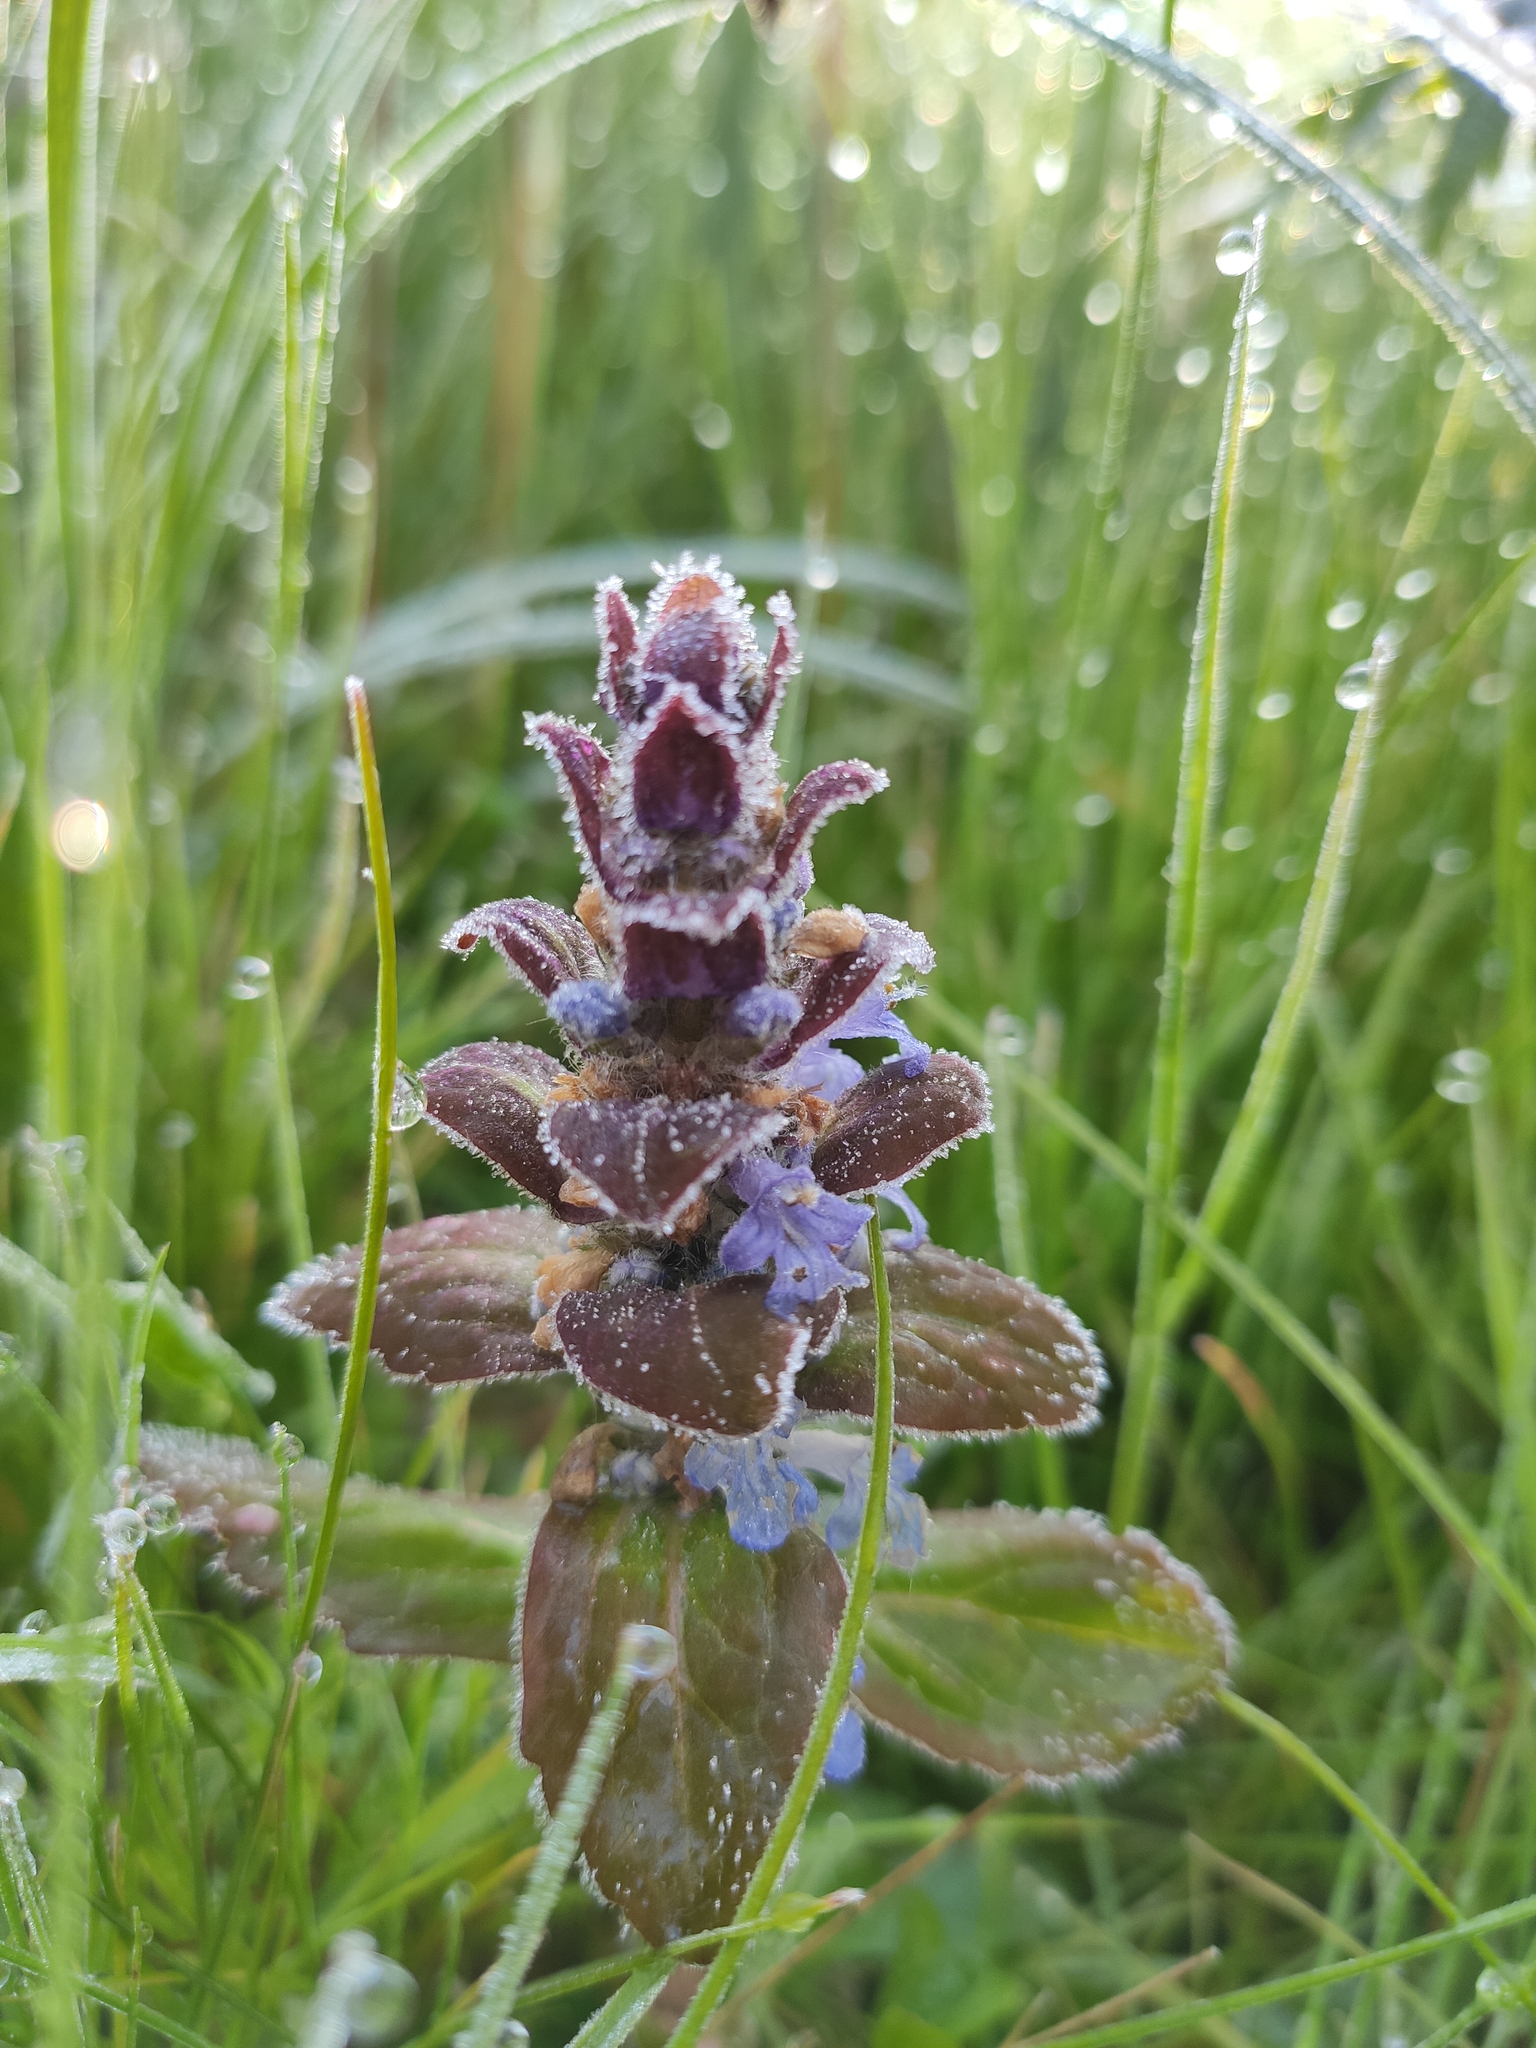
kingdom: Plantae
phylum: Tracheophyta
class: Magnoliopsida
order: Lamiales
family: Lamiaceae
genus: Ajuga
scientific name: Ajuga reptans
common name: Bugle
